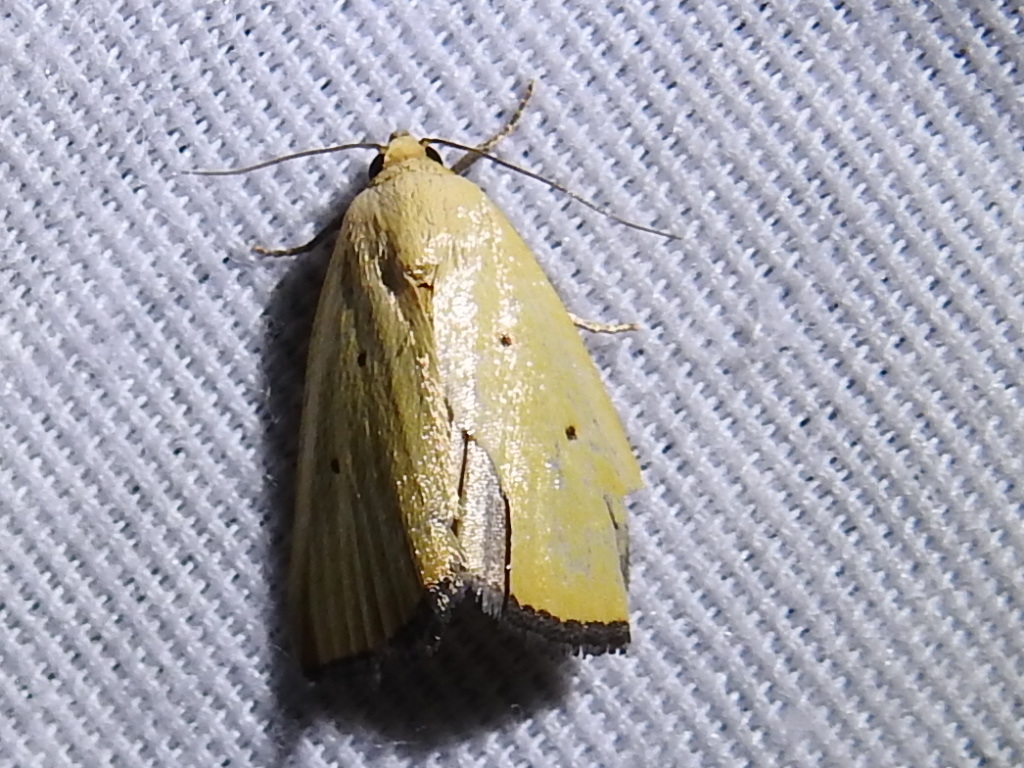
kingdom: Animalia
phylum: Arthropoda
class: Insecta
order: Lepidoptera
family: Noctuidae
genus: Marimatha
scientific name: Marimatha nigrofimbria
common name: Black-bordered lemon moth
